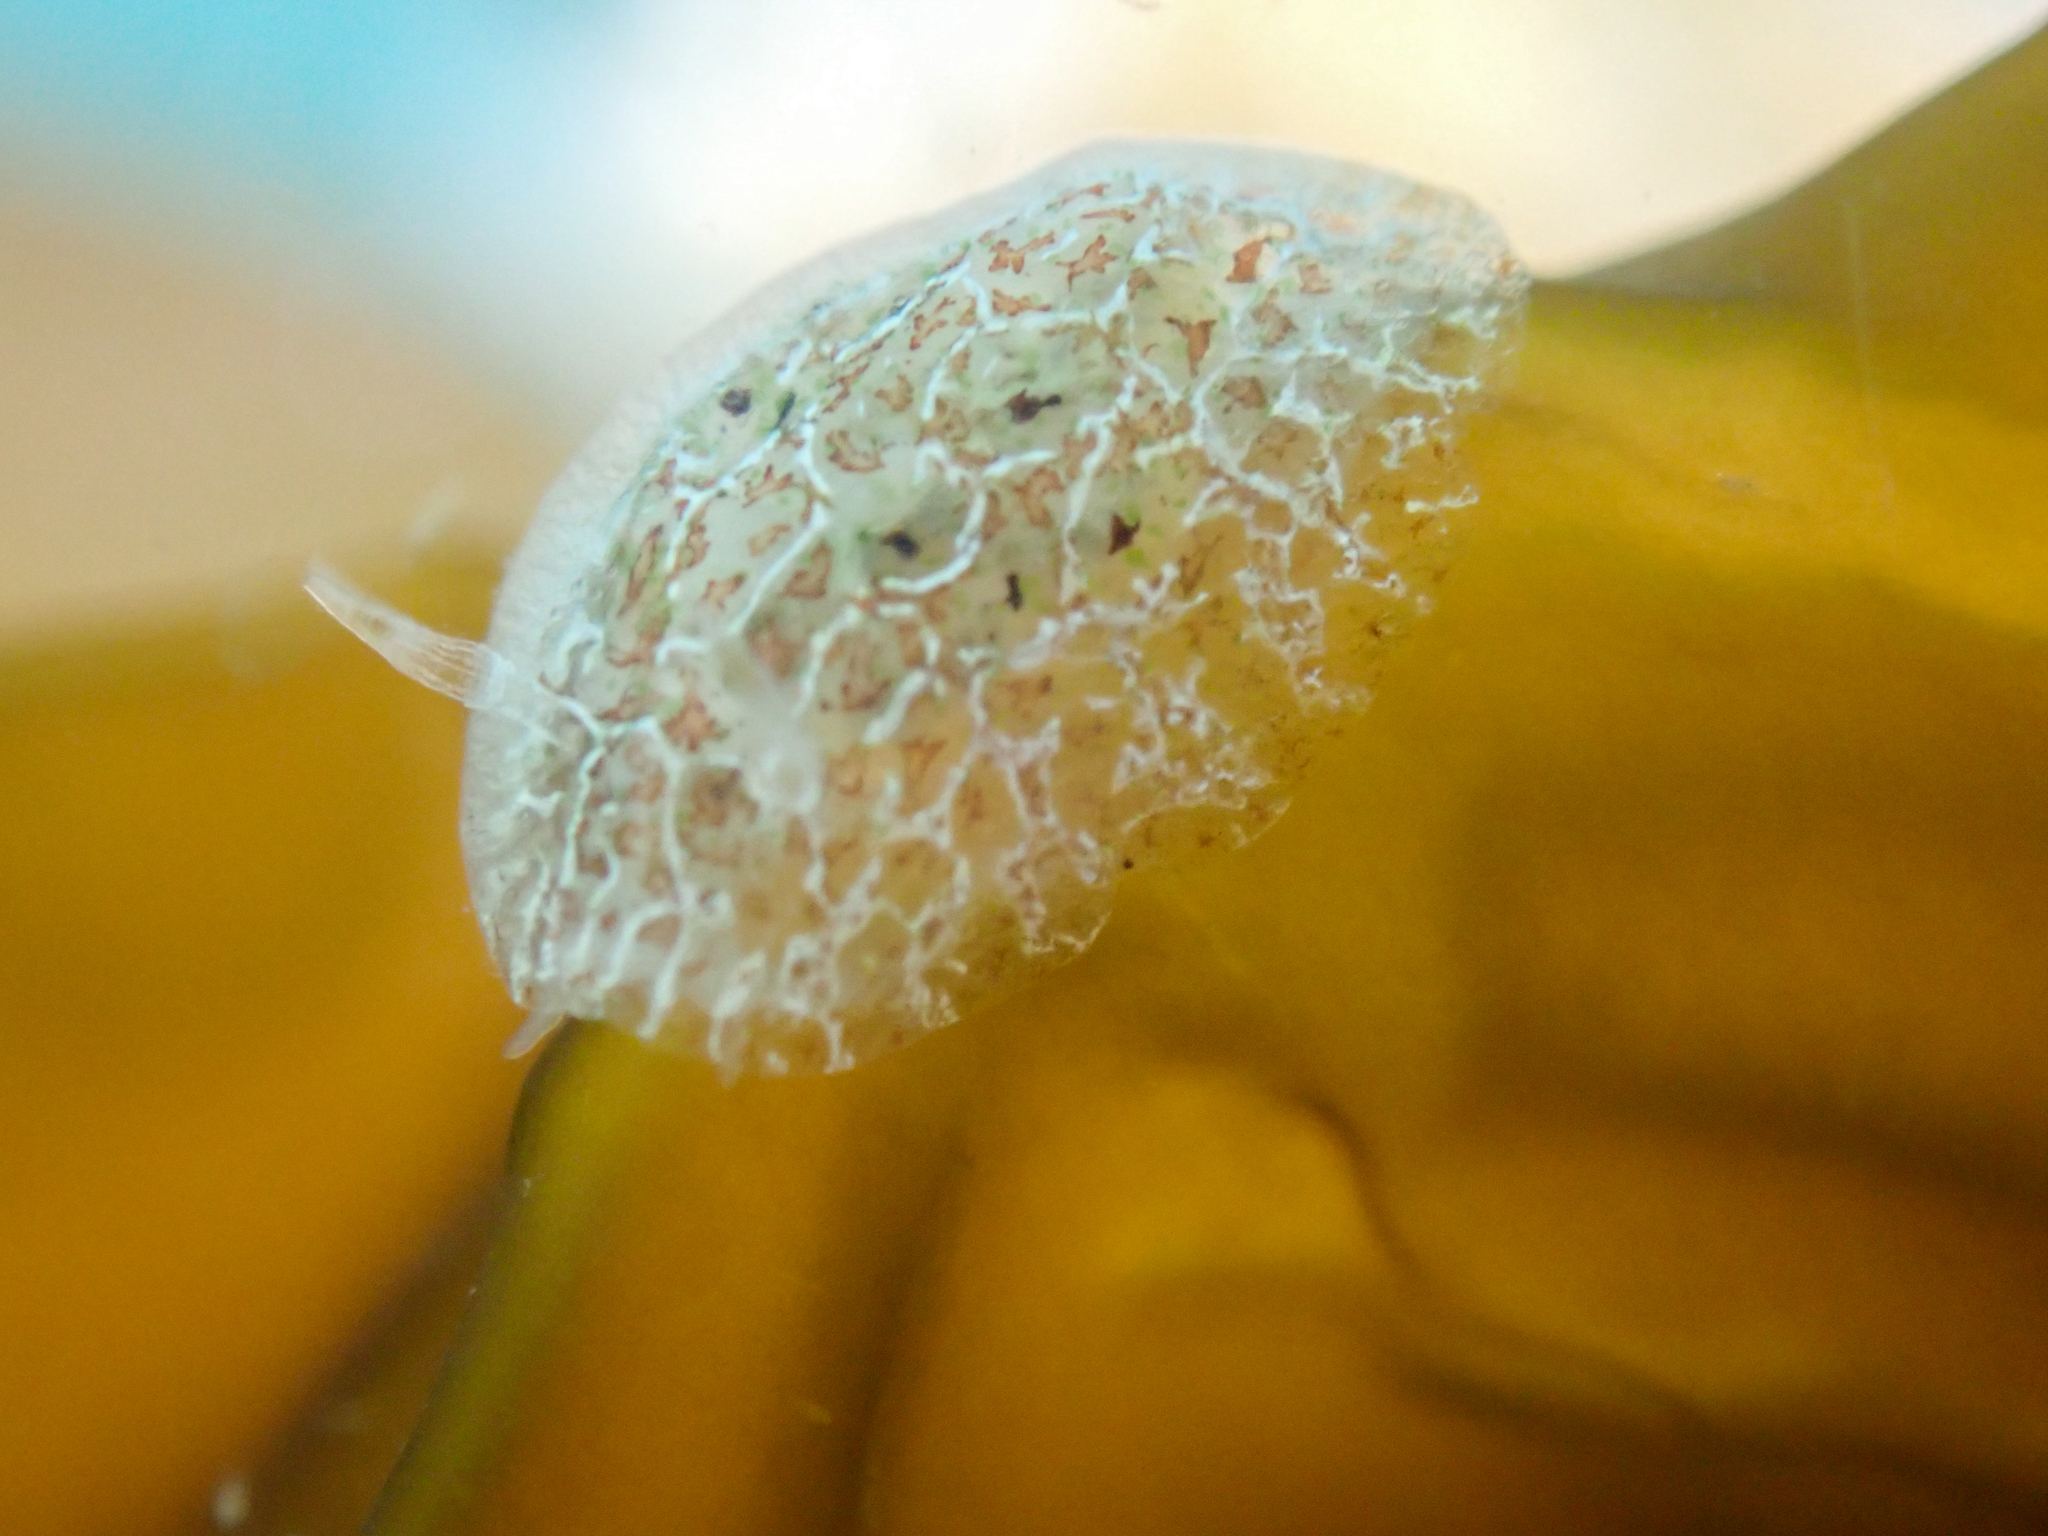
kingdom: Animalia
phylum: Mollusca
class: Gastropoda
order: Nudibranchia
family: Corambidae
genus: Corambe
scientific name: Corambe steinbergae
